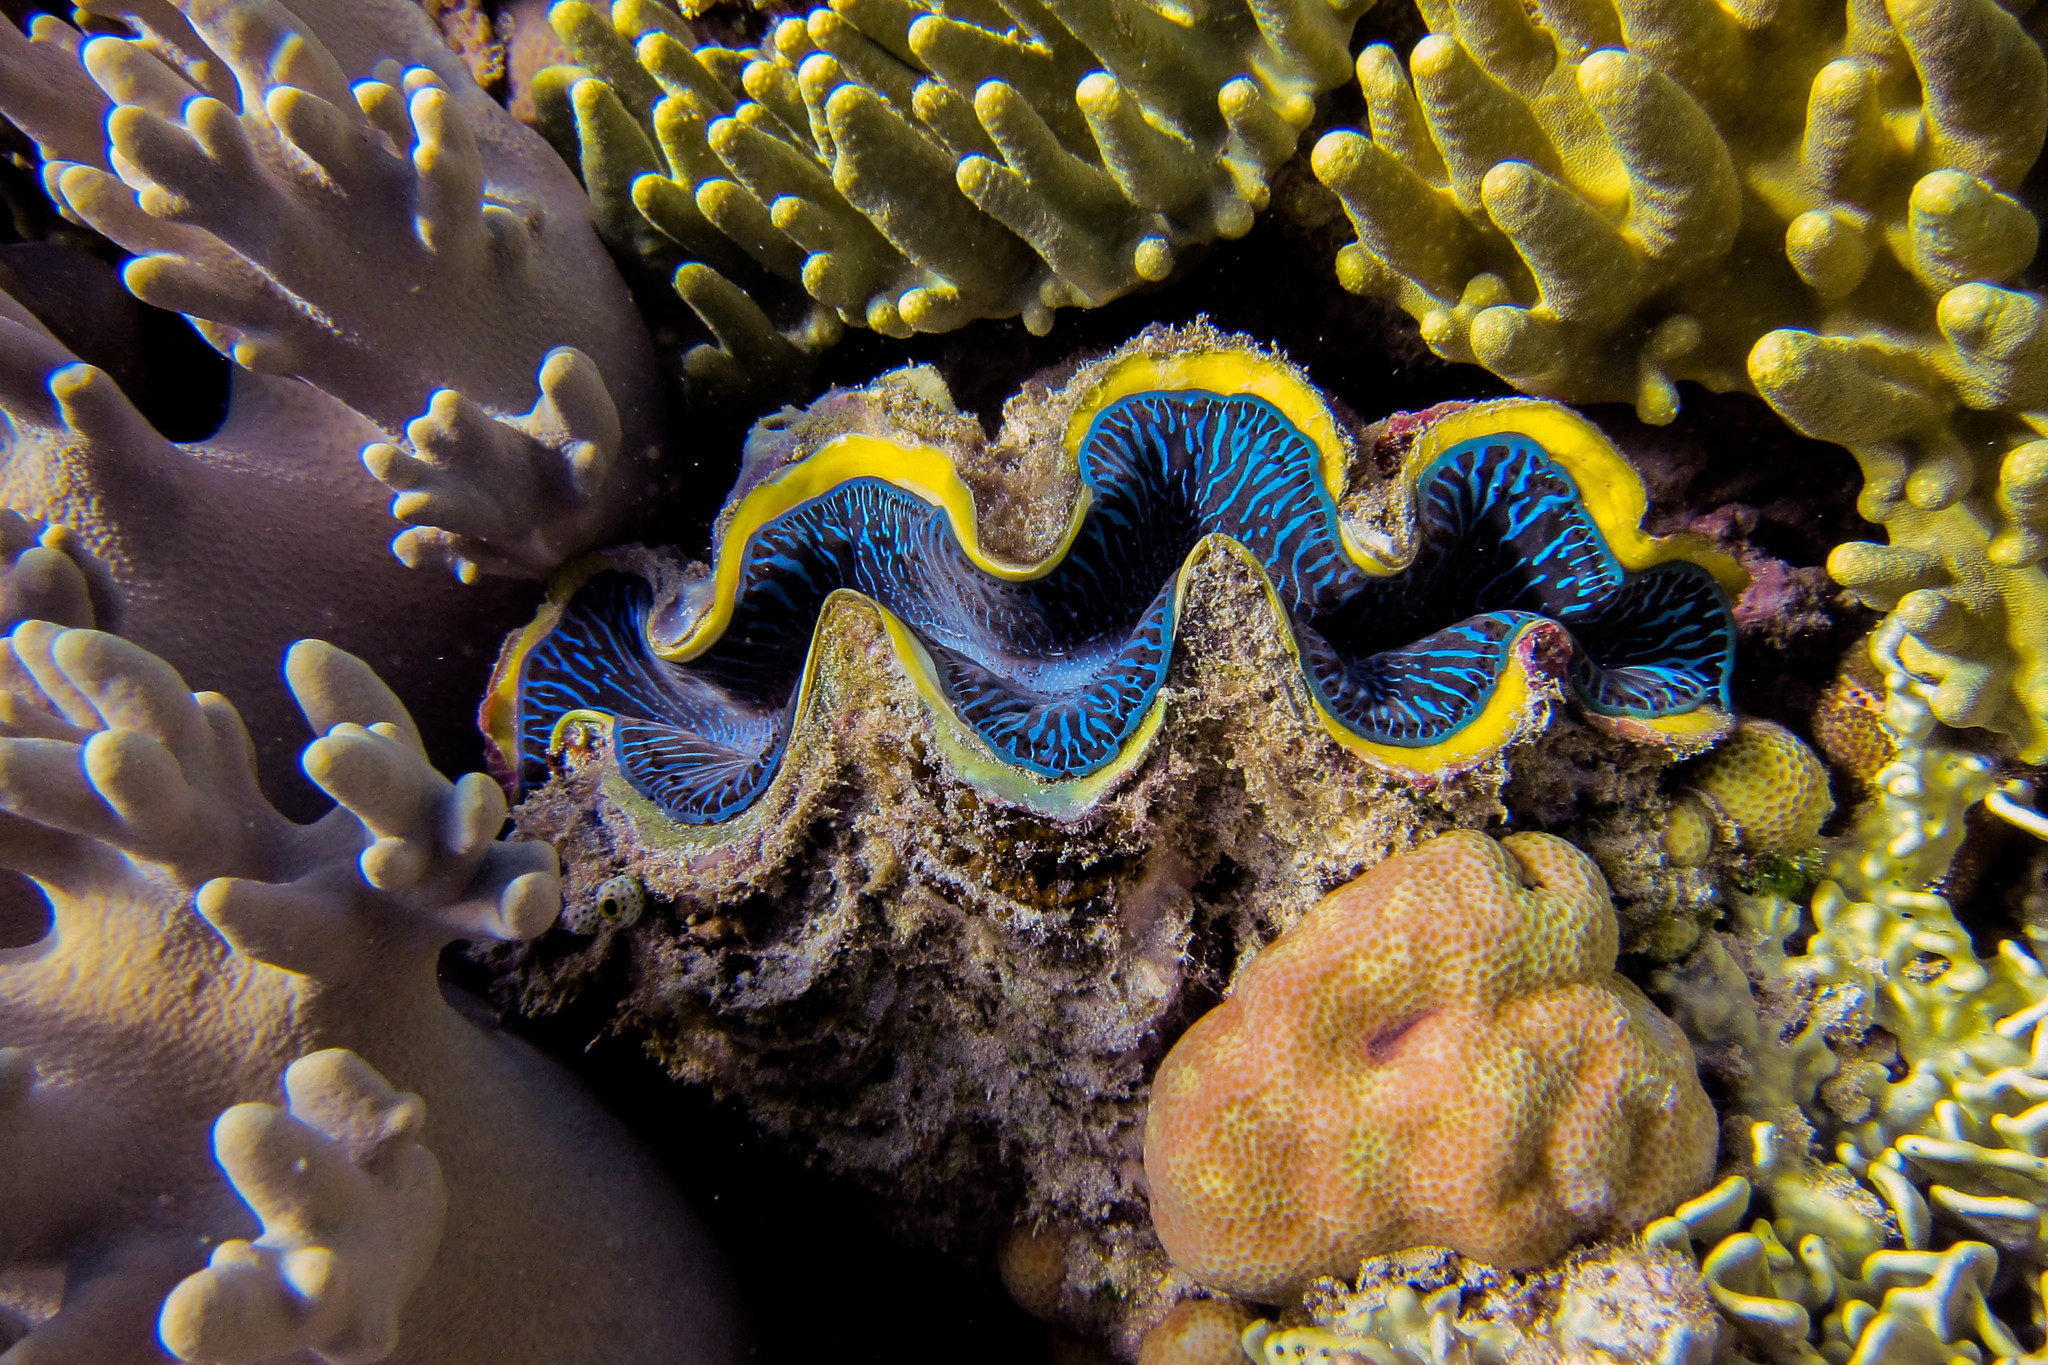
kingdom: Animalia
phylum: Mollusca
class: Bivalvia
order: Cardiida
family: Cardiidae
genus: Tridacna
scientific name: Tridacna maxima
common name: Small giant clam
